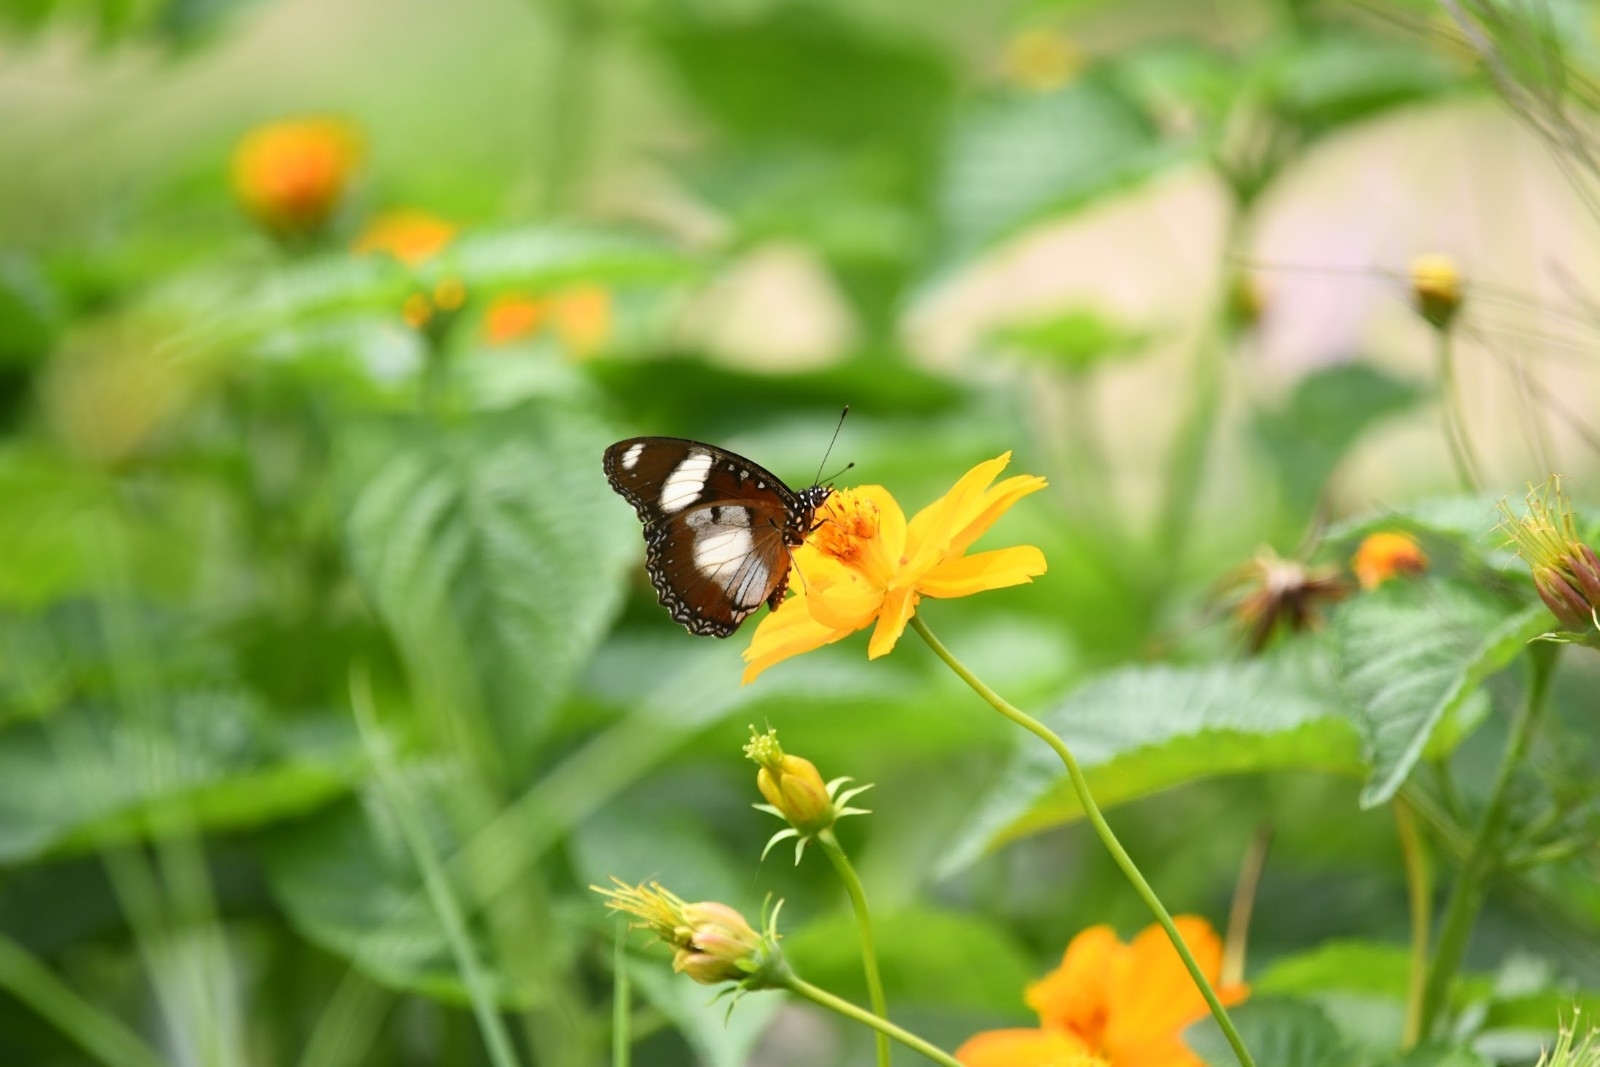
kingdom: Animalia
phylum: Arthropoda
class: Insecta
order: Lepidoptera
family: Nymphalidae
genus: Hypolimnas
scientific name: Hypolimnas misippus
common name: False plain tiger
